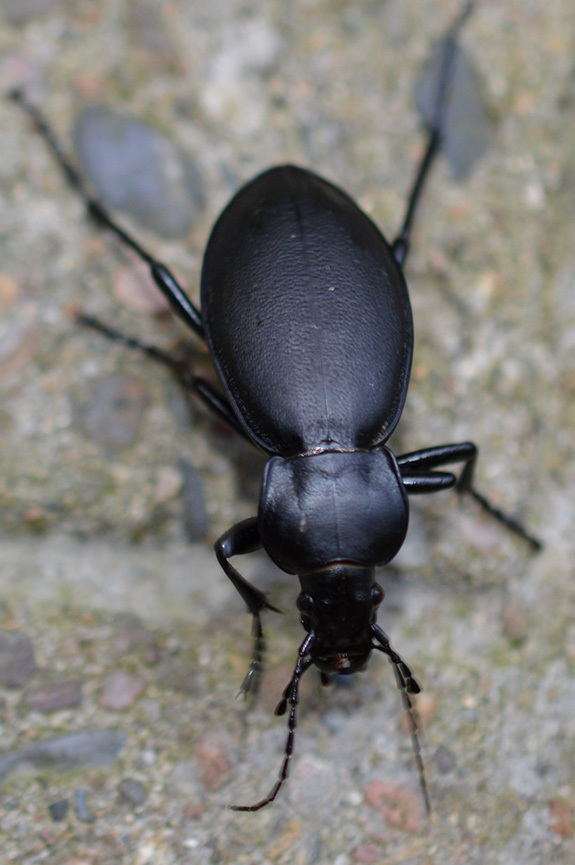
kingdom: Animalia
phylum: Arthropoda
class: Insecta
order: Coleoptera
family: Carabidae
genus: Carabus
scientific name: Carabus coriaceus
